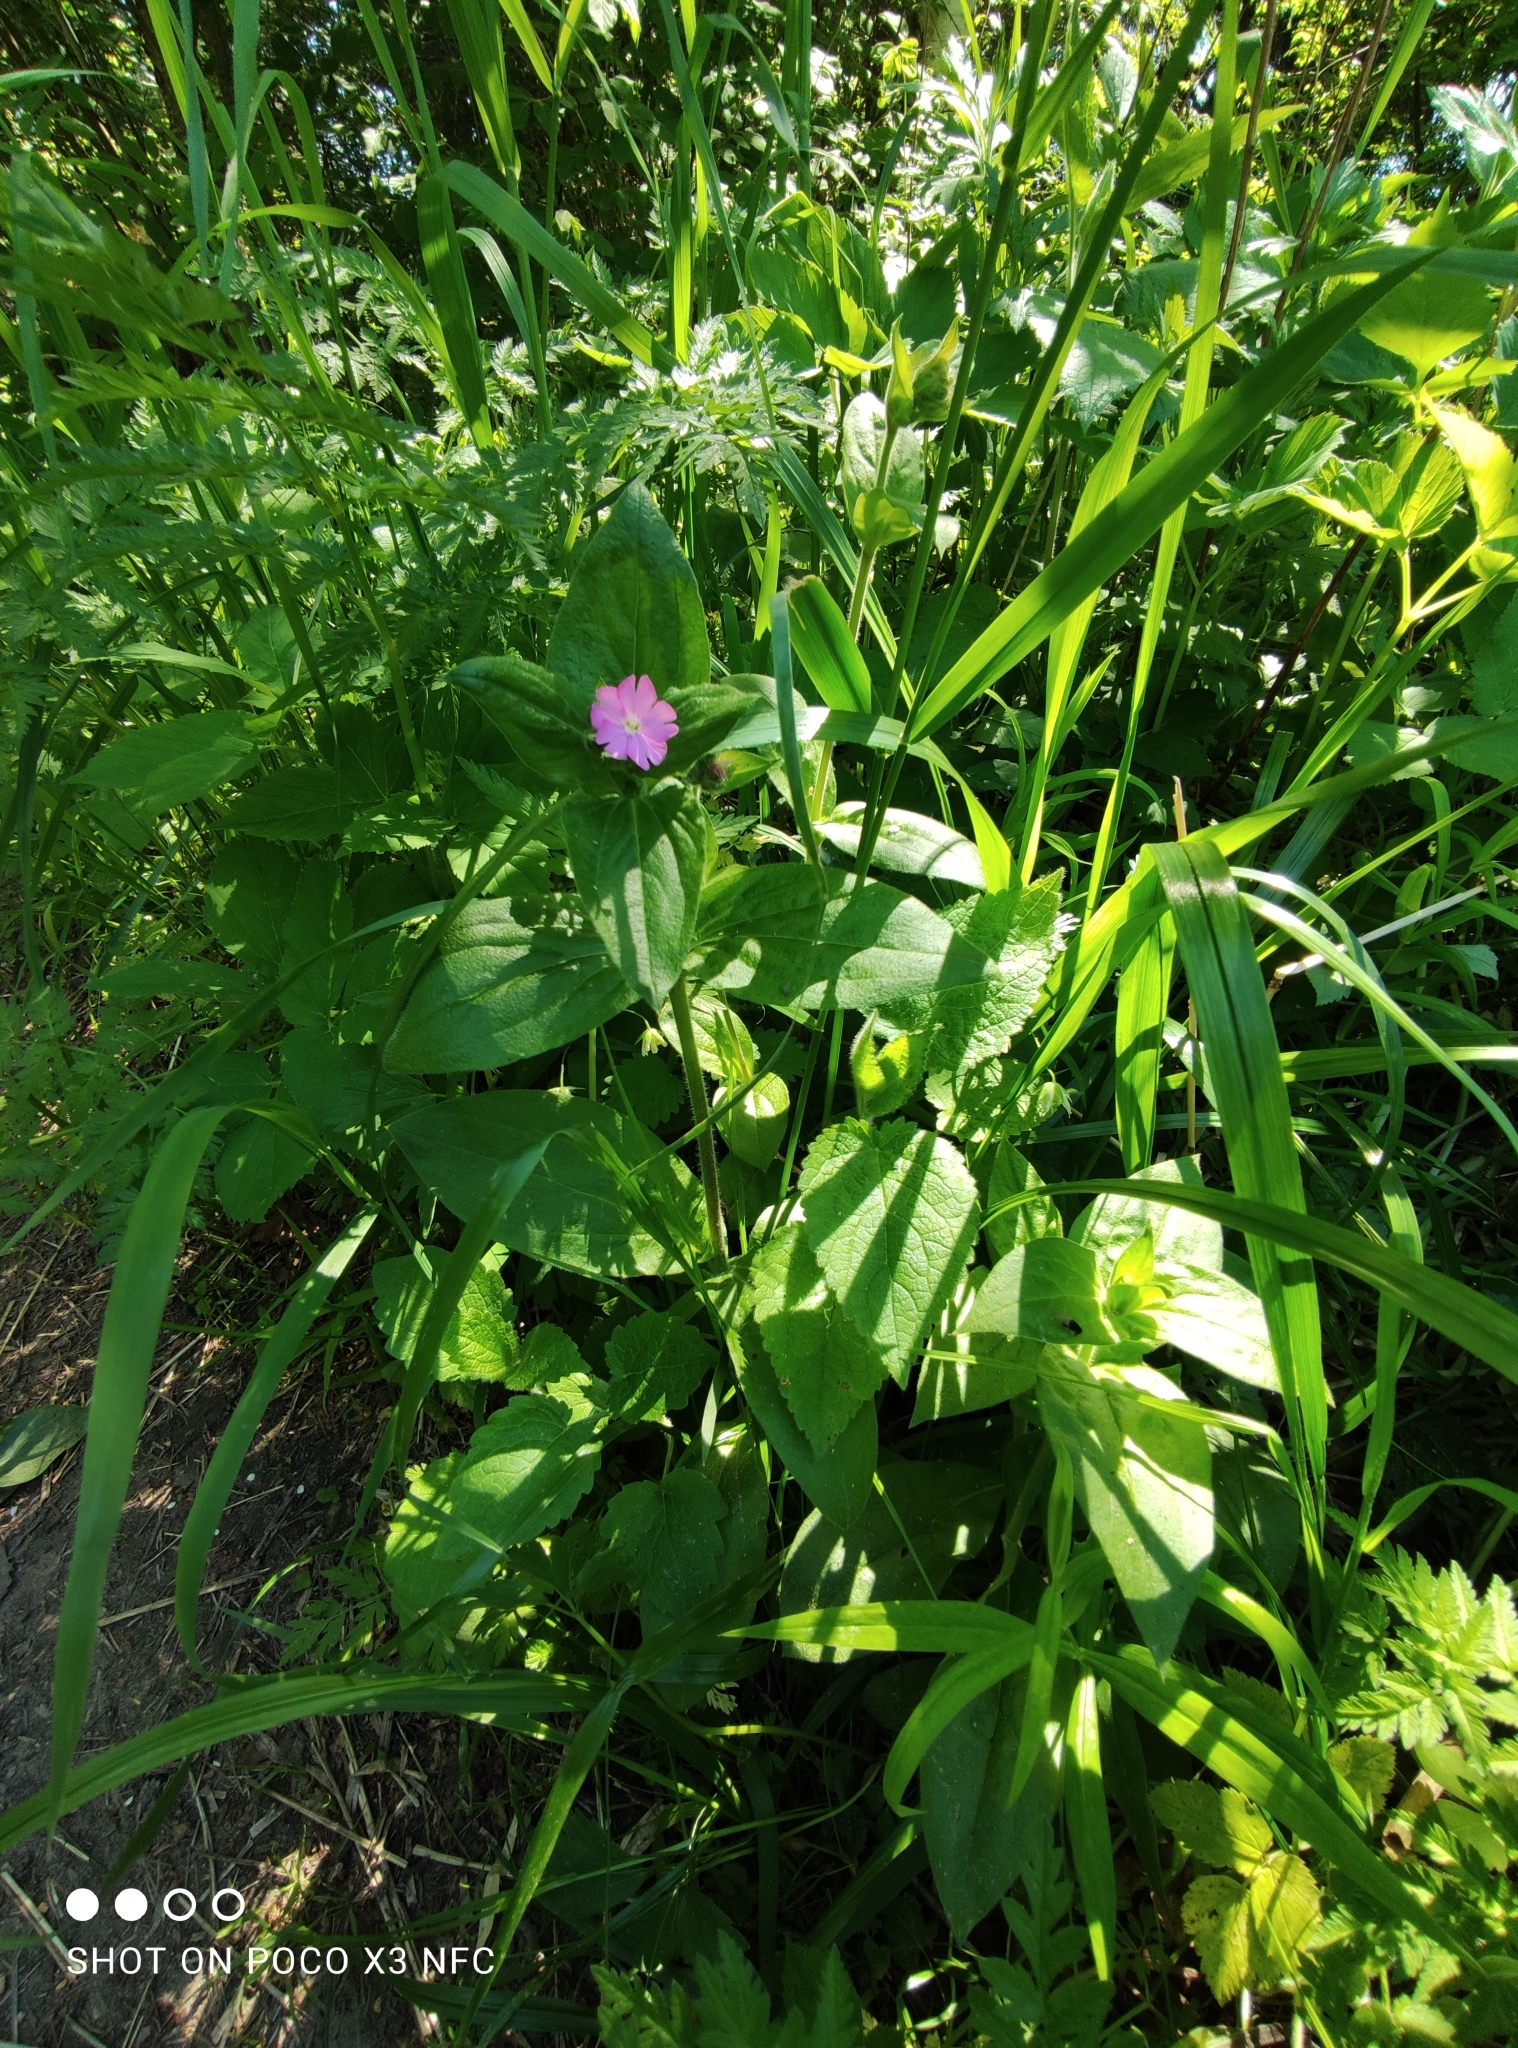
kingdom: Plantae
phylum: Tracheophyta
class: Magnoliopsida
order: Caryophyllales
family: Caryophyllaceae
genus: Silene
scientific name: Silene dioica
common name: Red campion
